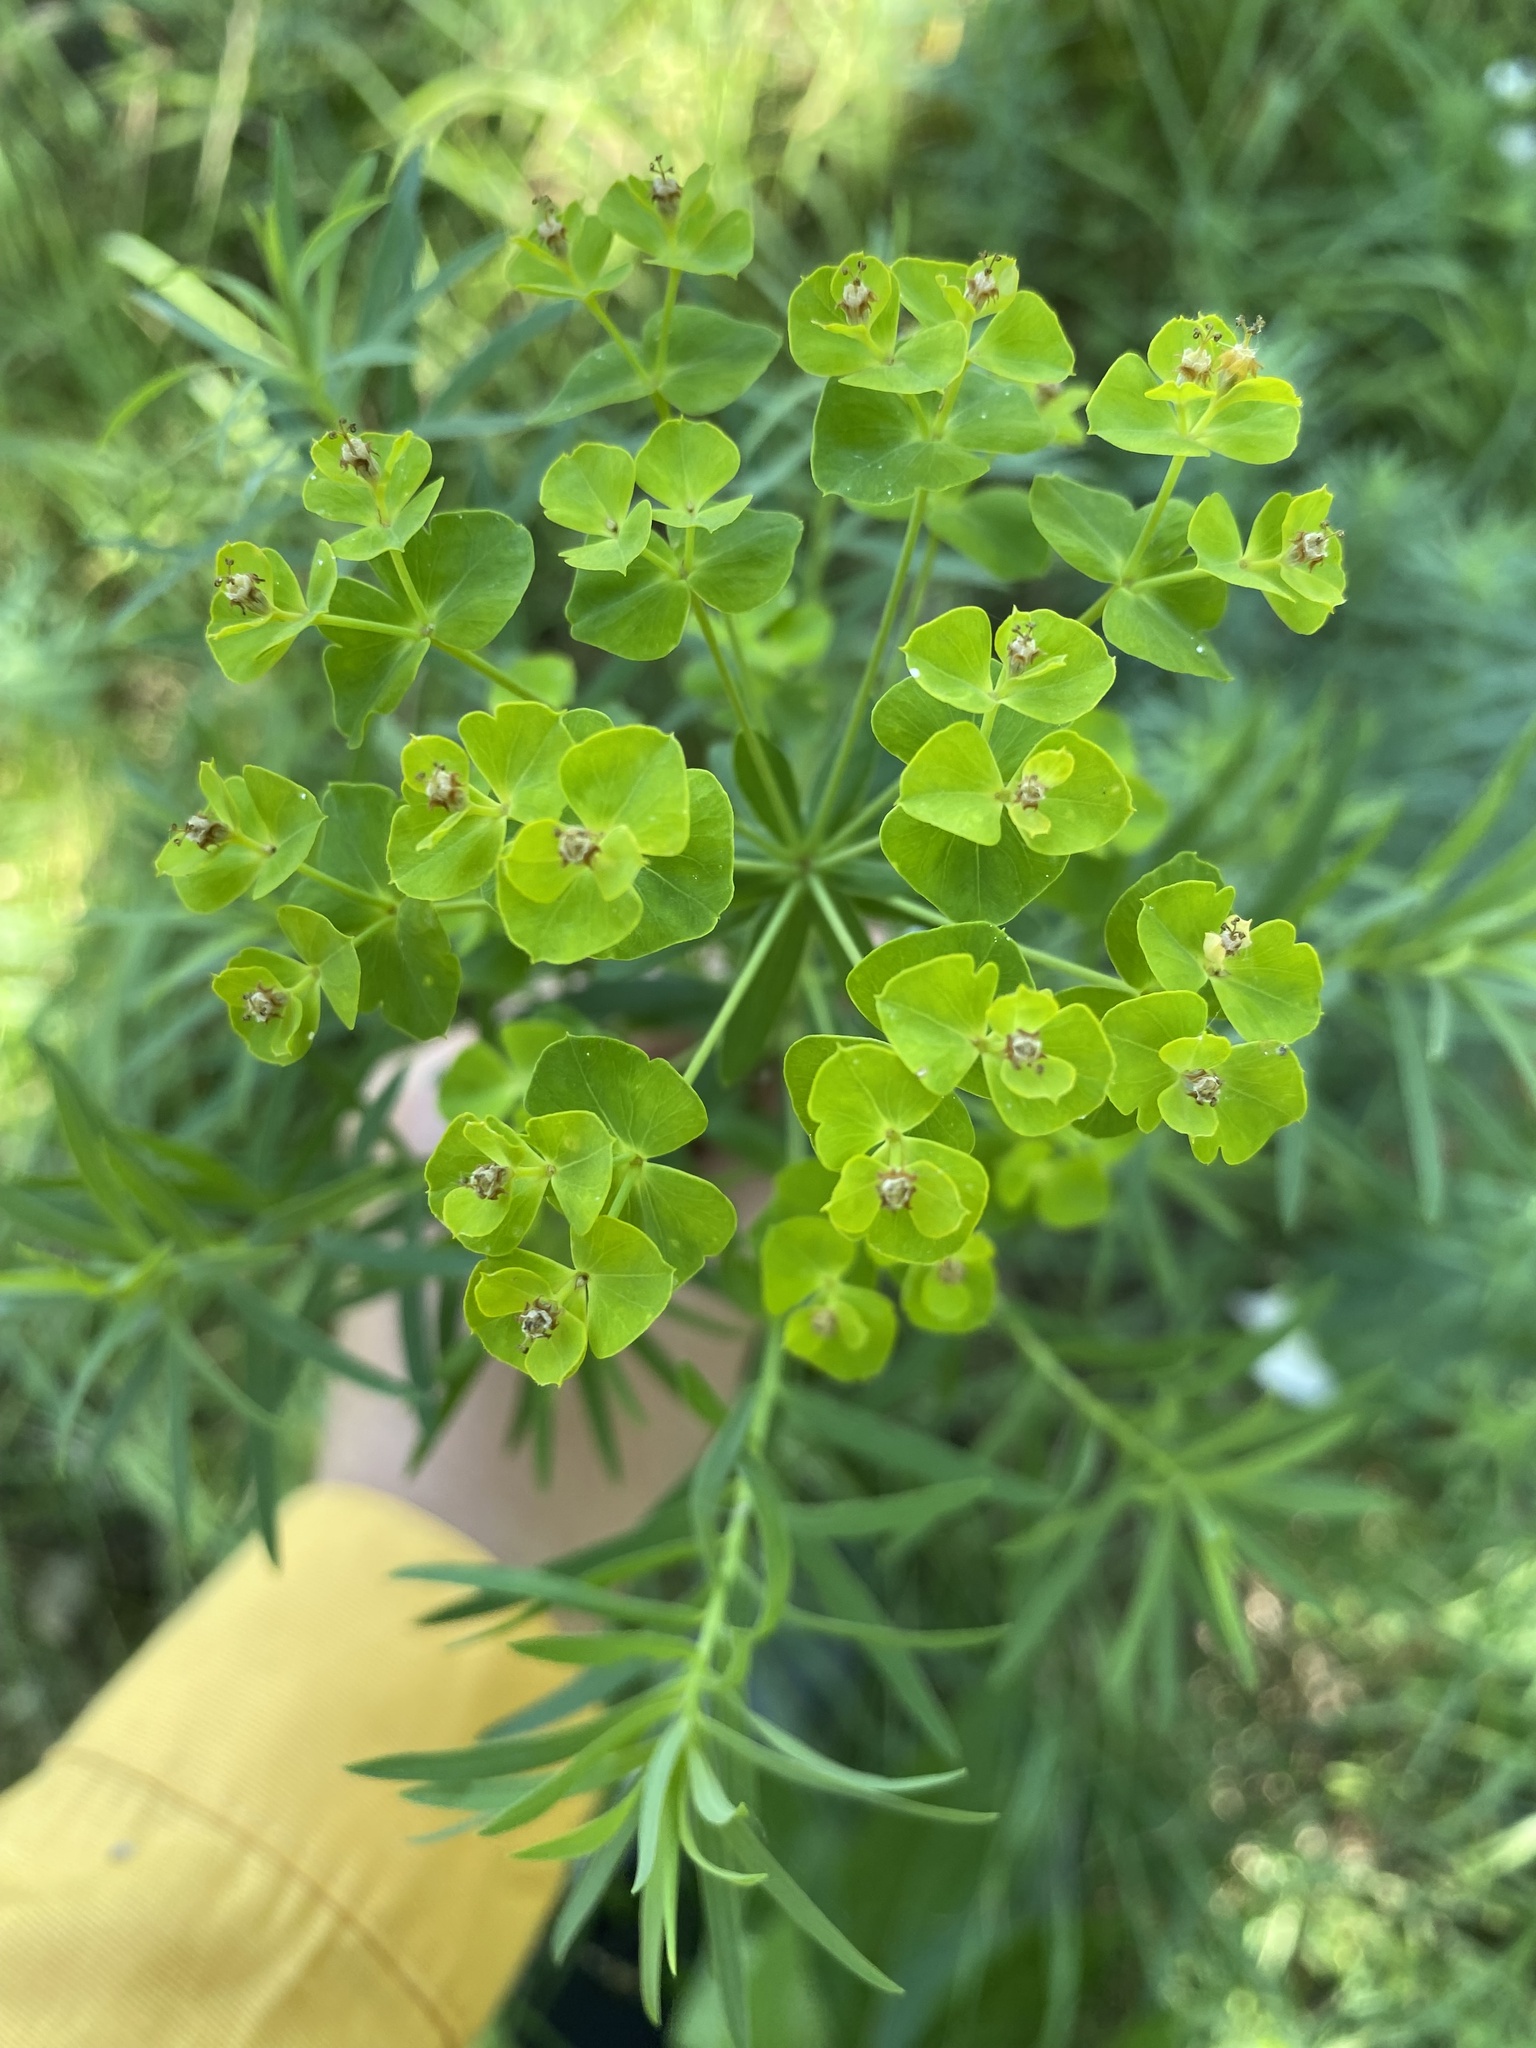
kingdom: Plantae
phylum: Tracheophyta
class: Magnoliopsida
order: Malpighiales
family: Euphorbiaceae
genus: Euphorbia
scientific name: Euphorbia virgata
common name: Leafy spurge
